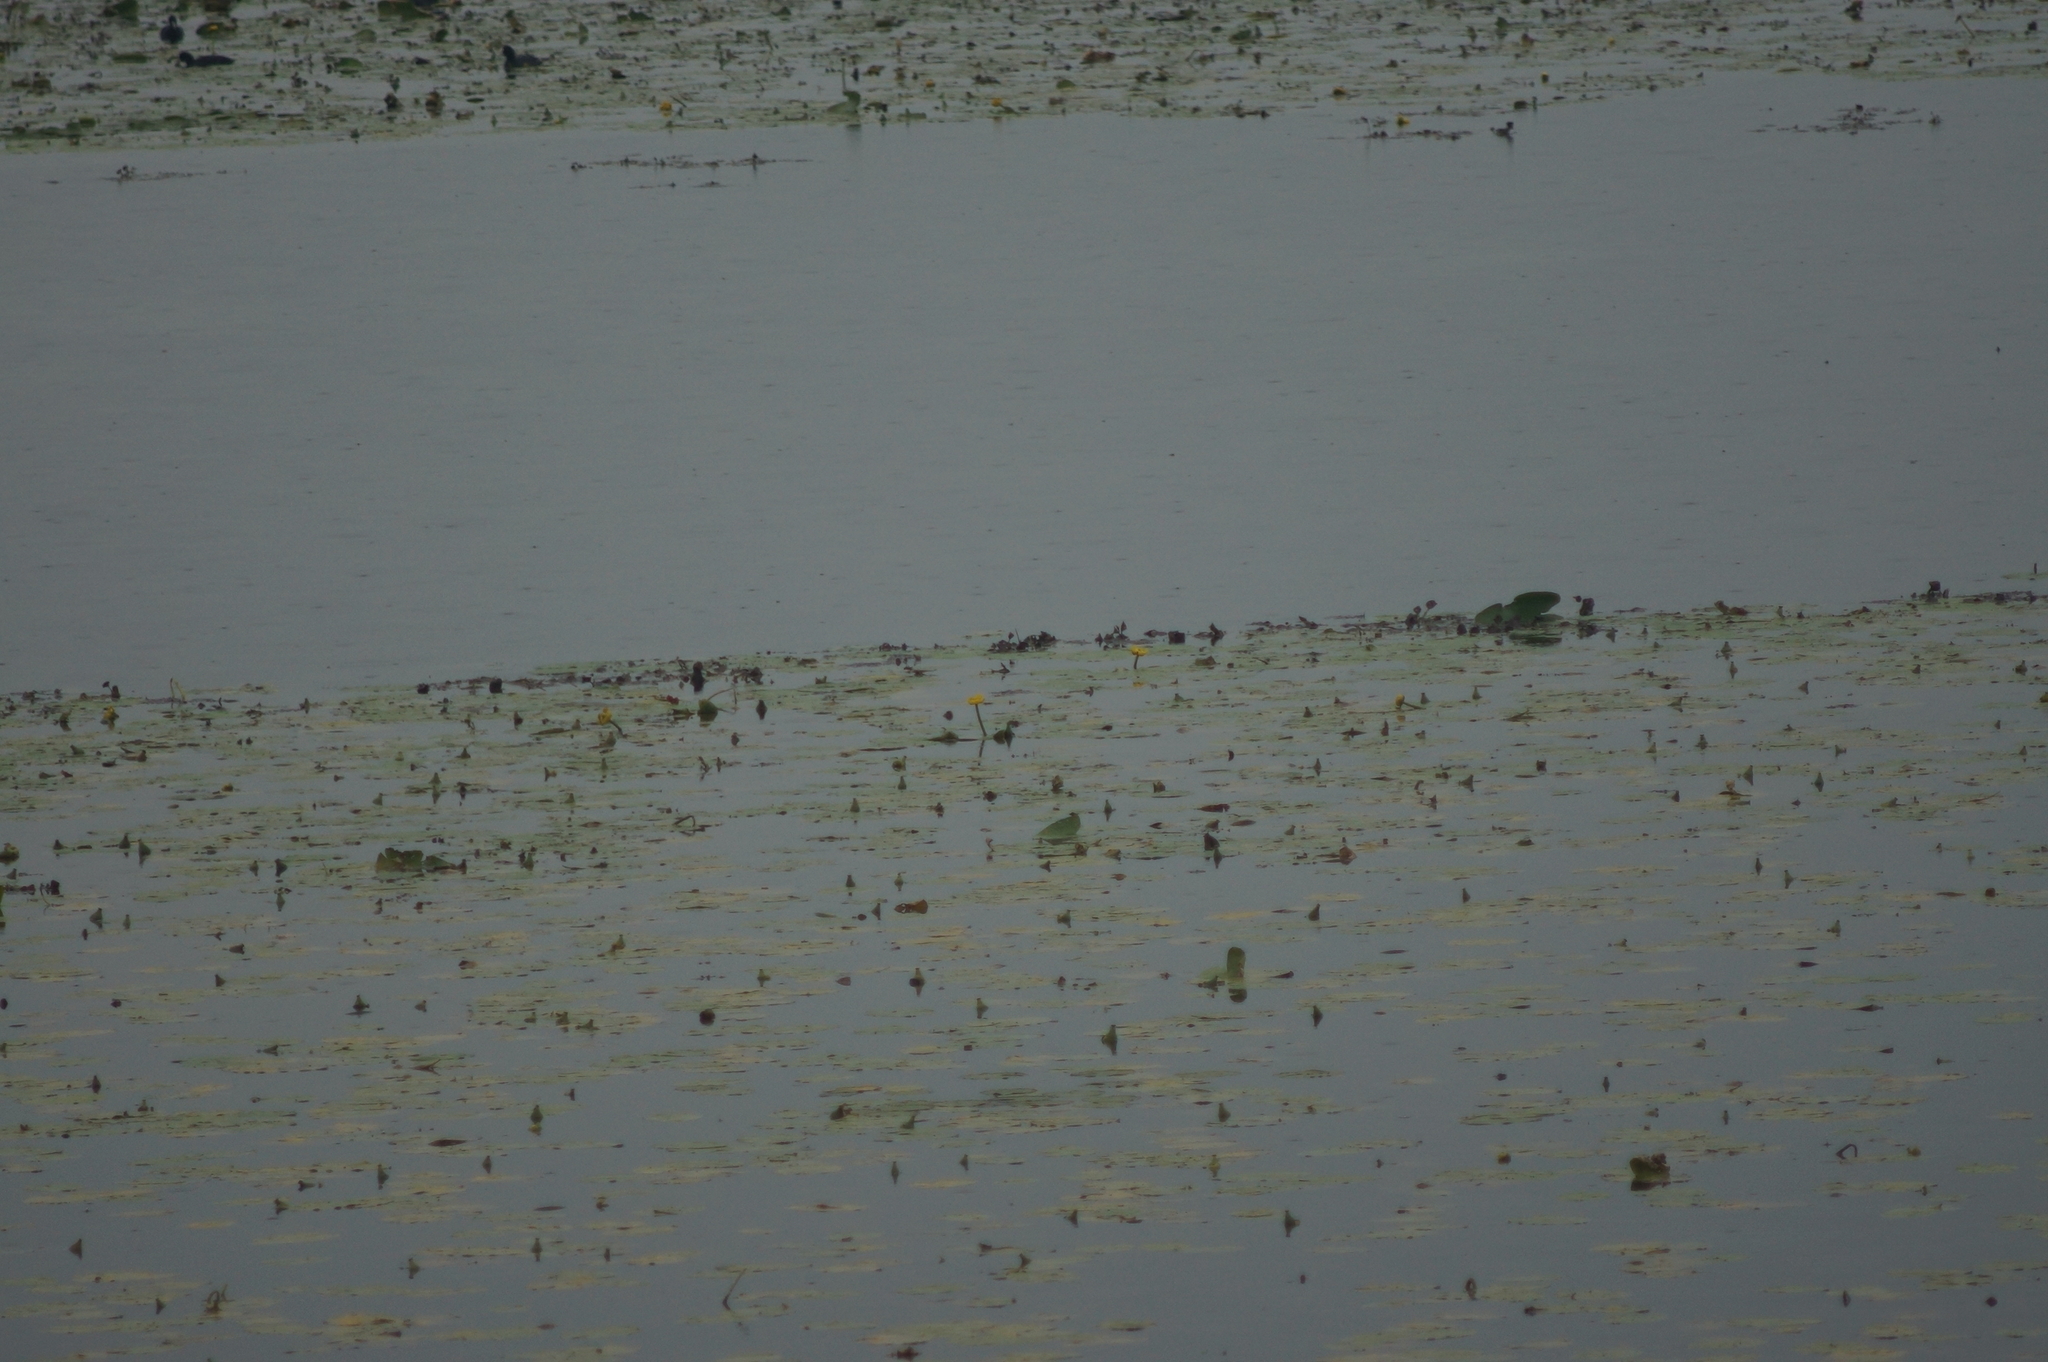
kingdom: Plantae
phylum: Tracheophyta
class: Magnoliopsida
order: Nymphaeales
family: Nymphaeaceae
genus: Nuphar
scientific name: Nuphar lutea
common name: Yellow water-lily
